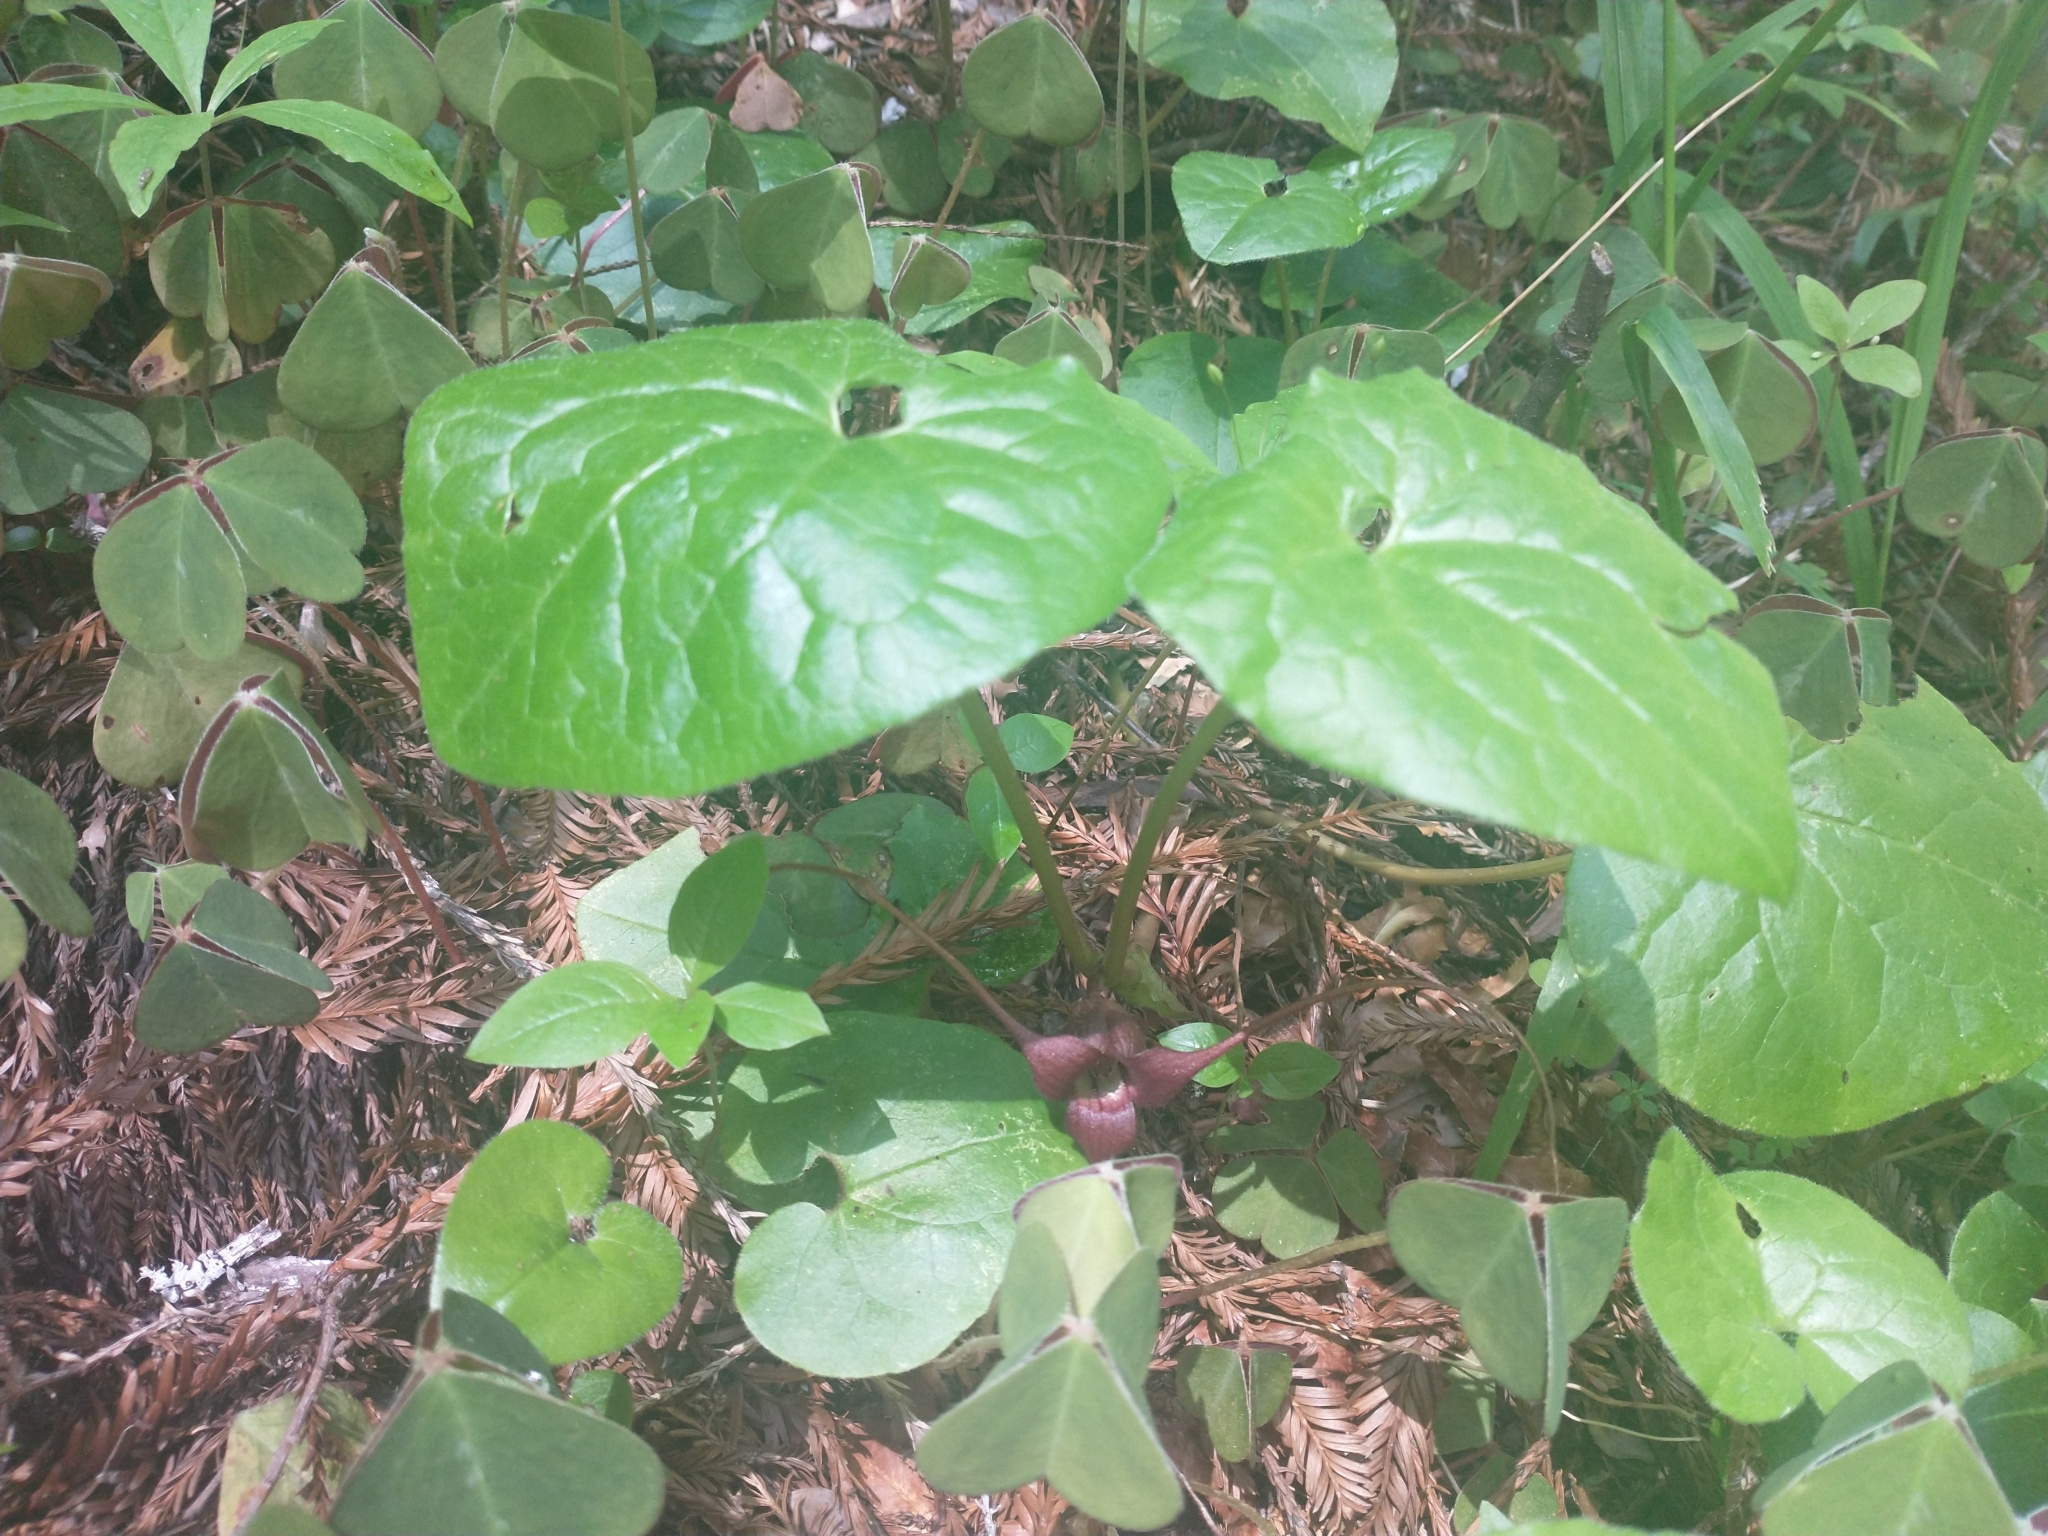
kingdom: Plantae
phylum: Tracheophyta
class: Magnoliopsida
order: Piperales
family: Aristolochiaceae
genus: Asarum
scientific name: Asarum caudatum
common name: Wild ginger
